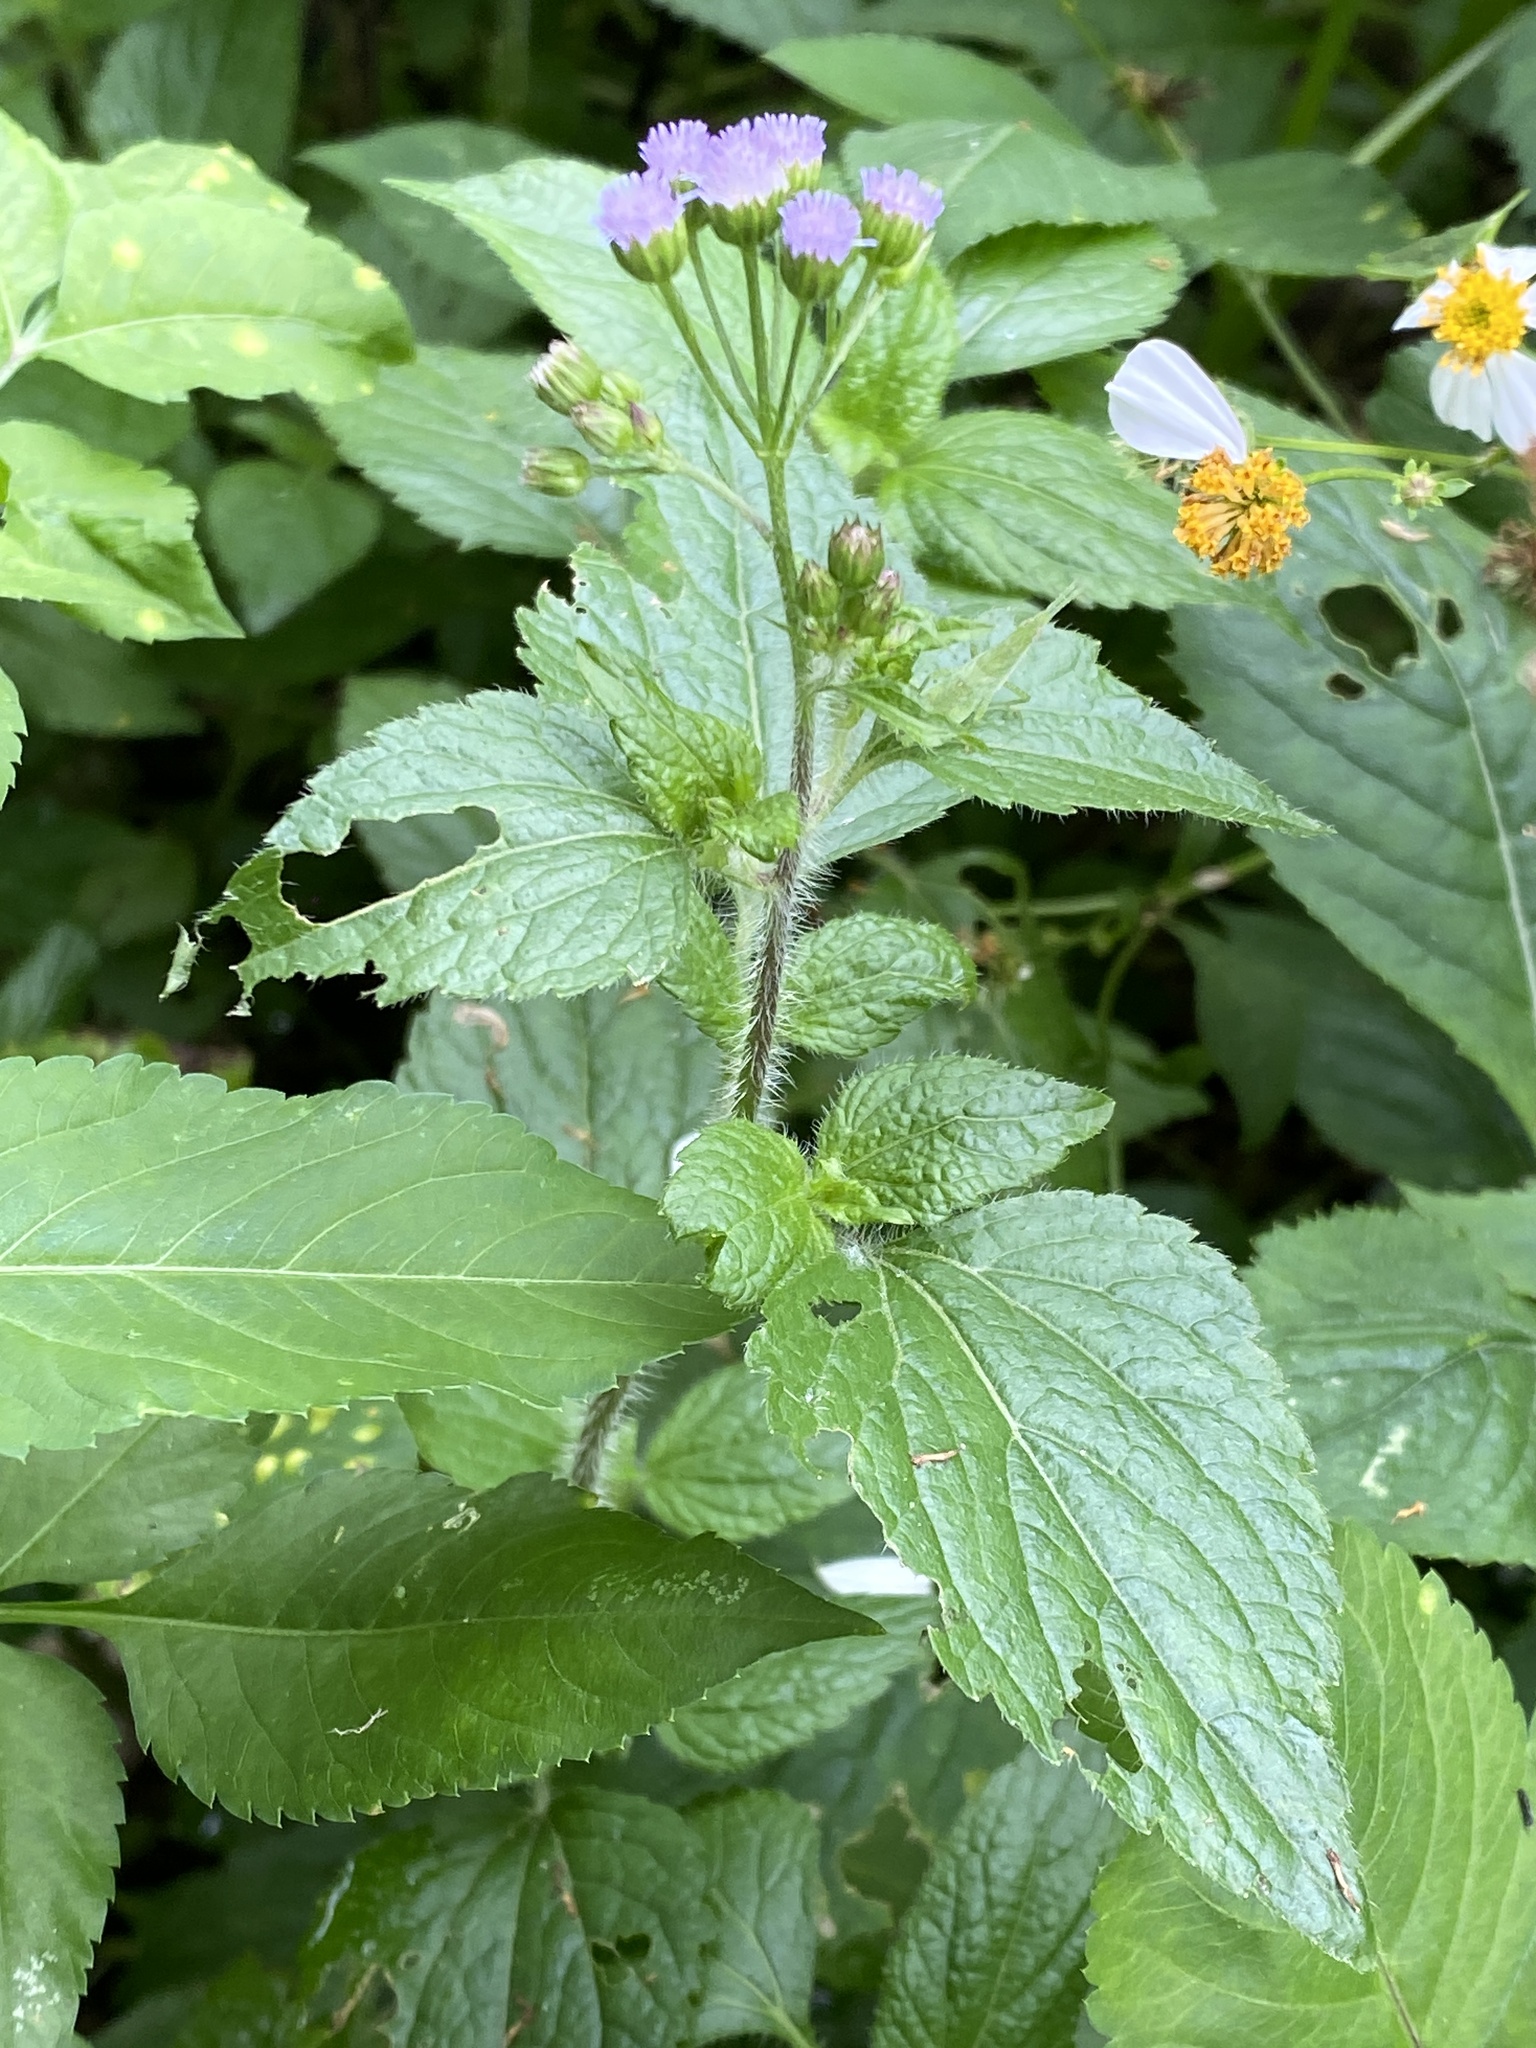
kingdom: Plantae
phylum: Tracheophyta
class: Magnoliopsida
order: Asterales
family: Asteraceae
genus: Ageratum
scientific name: Ageratum conyzoides
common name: Tropical whiteweed
